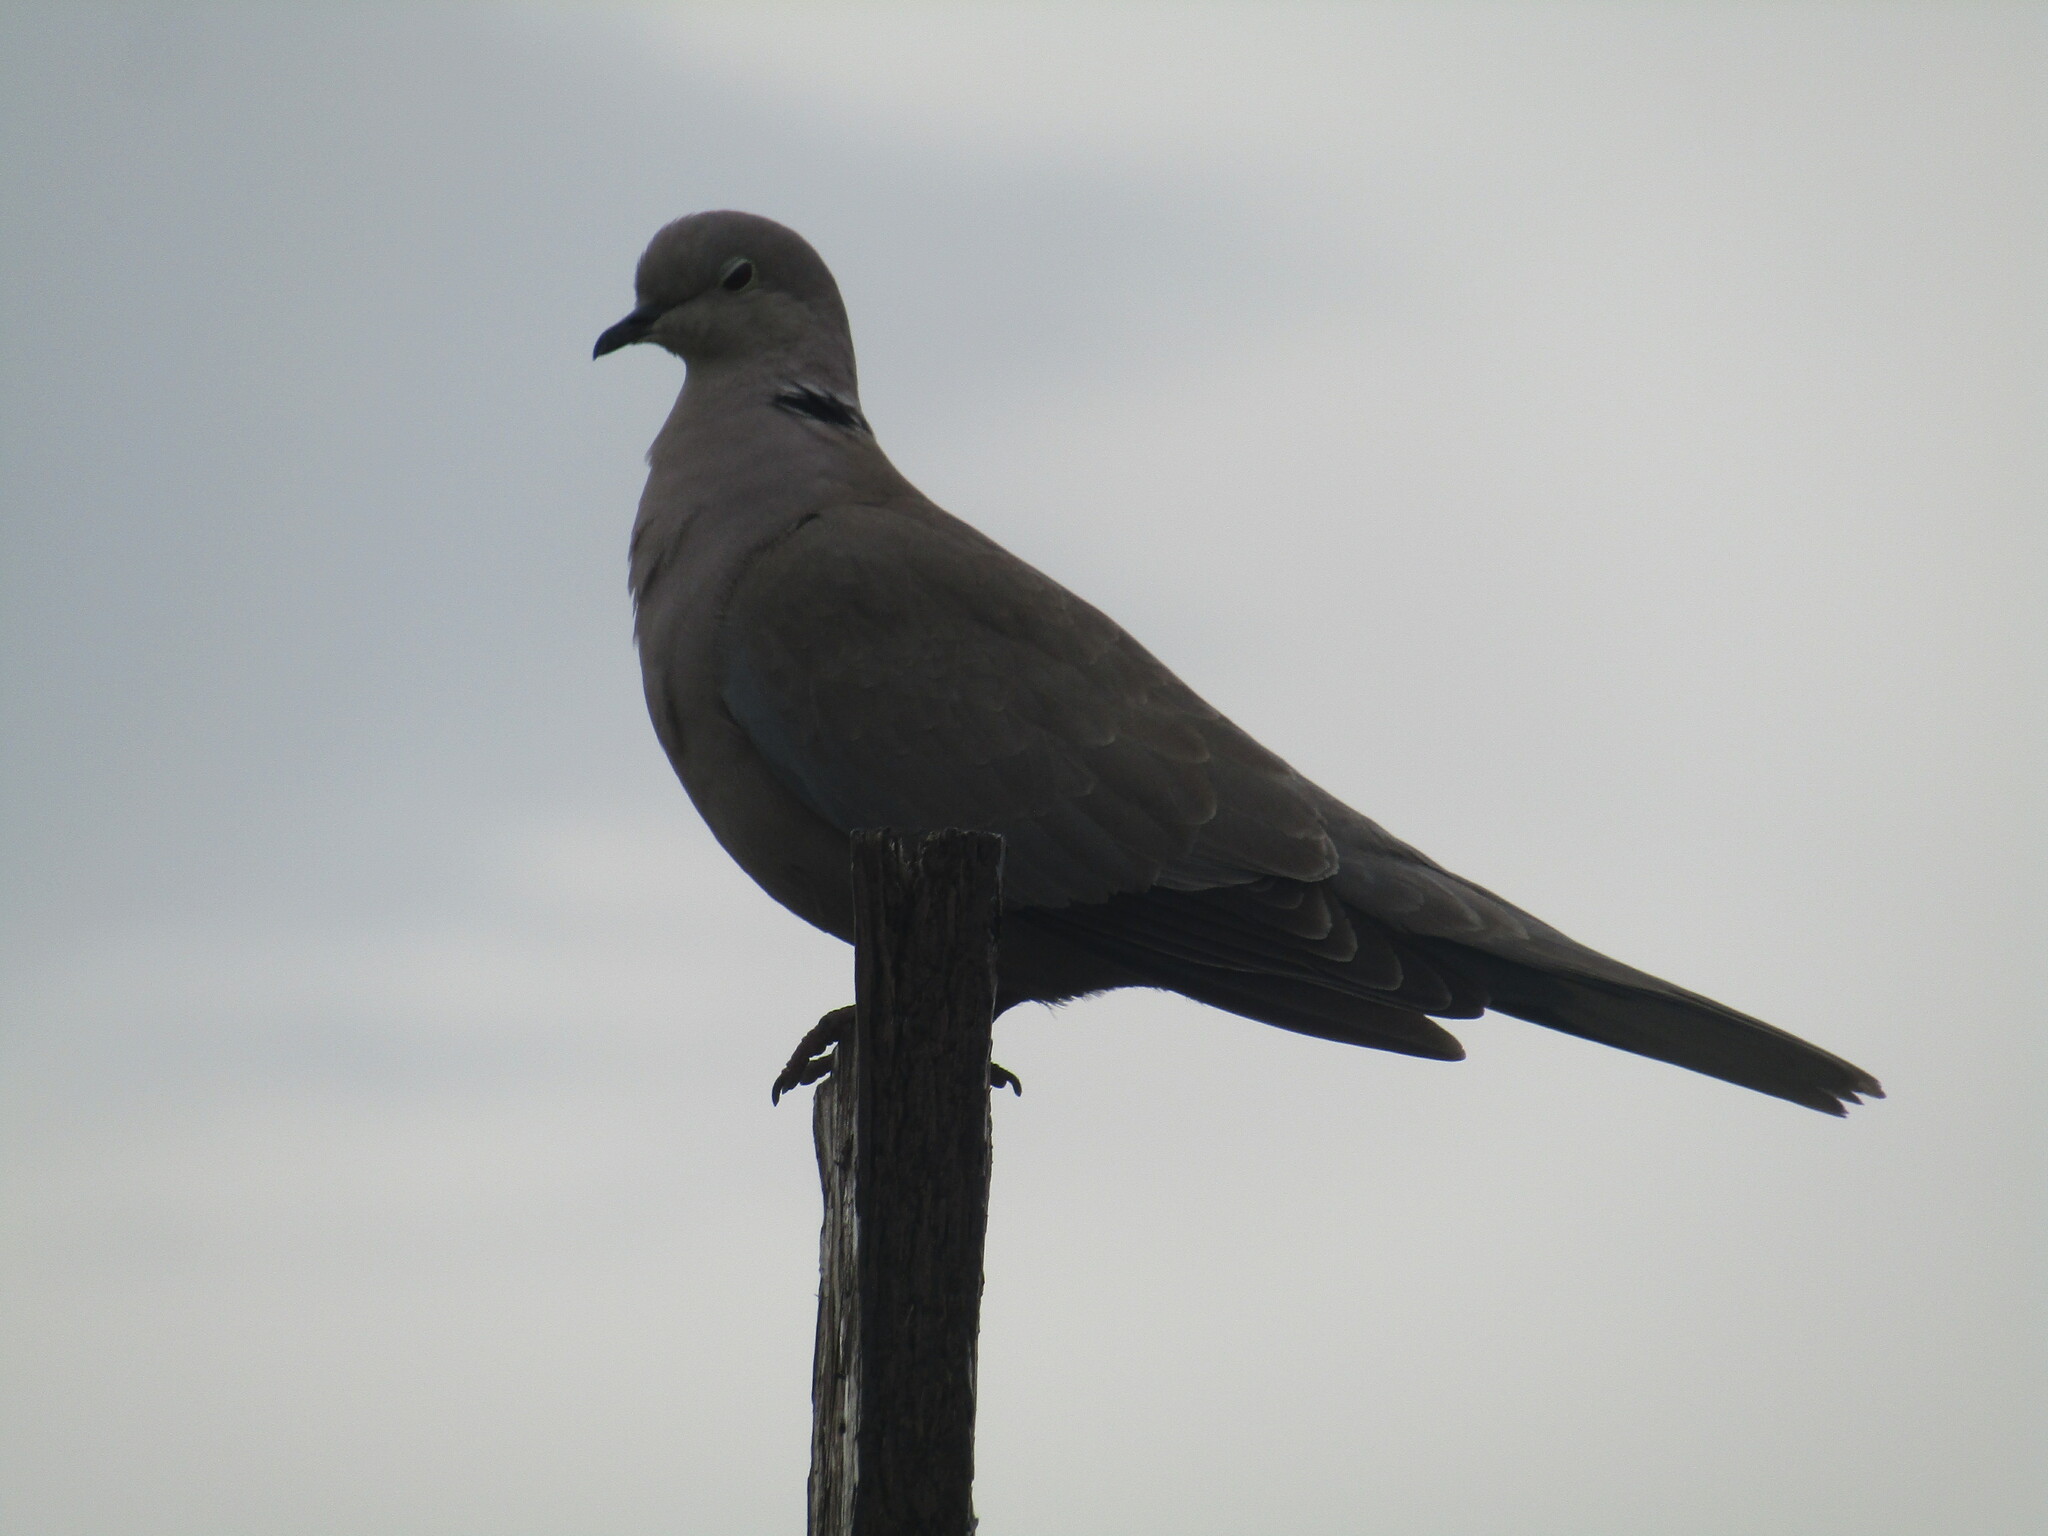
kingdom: Animalia
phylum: Chordata
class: Aves
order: Columbiformes
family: Columbidae
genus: Streptopelia
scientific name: Streptopelia decaocto
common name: Eurasian collared dove
